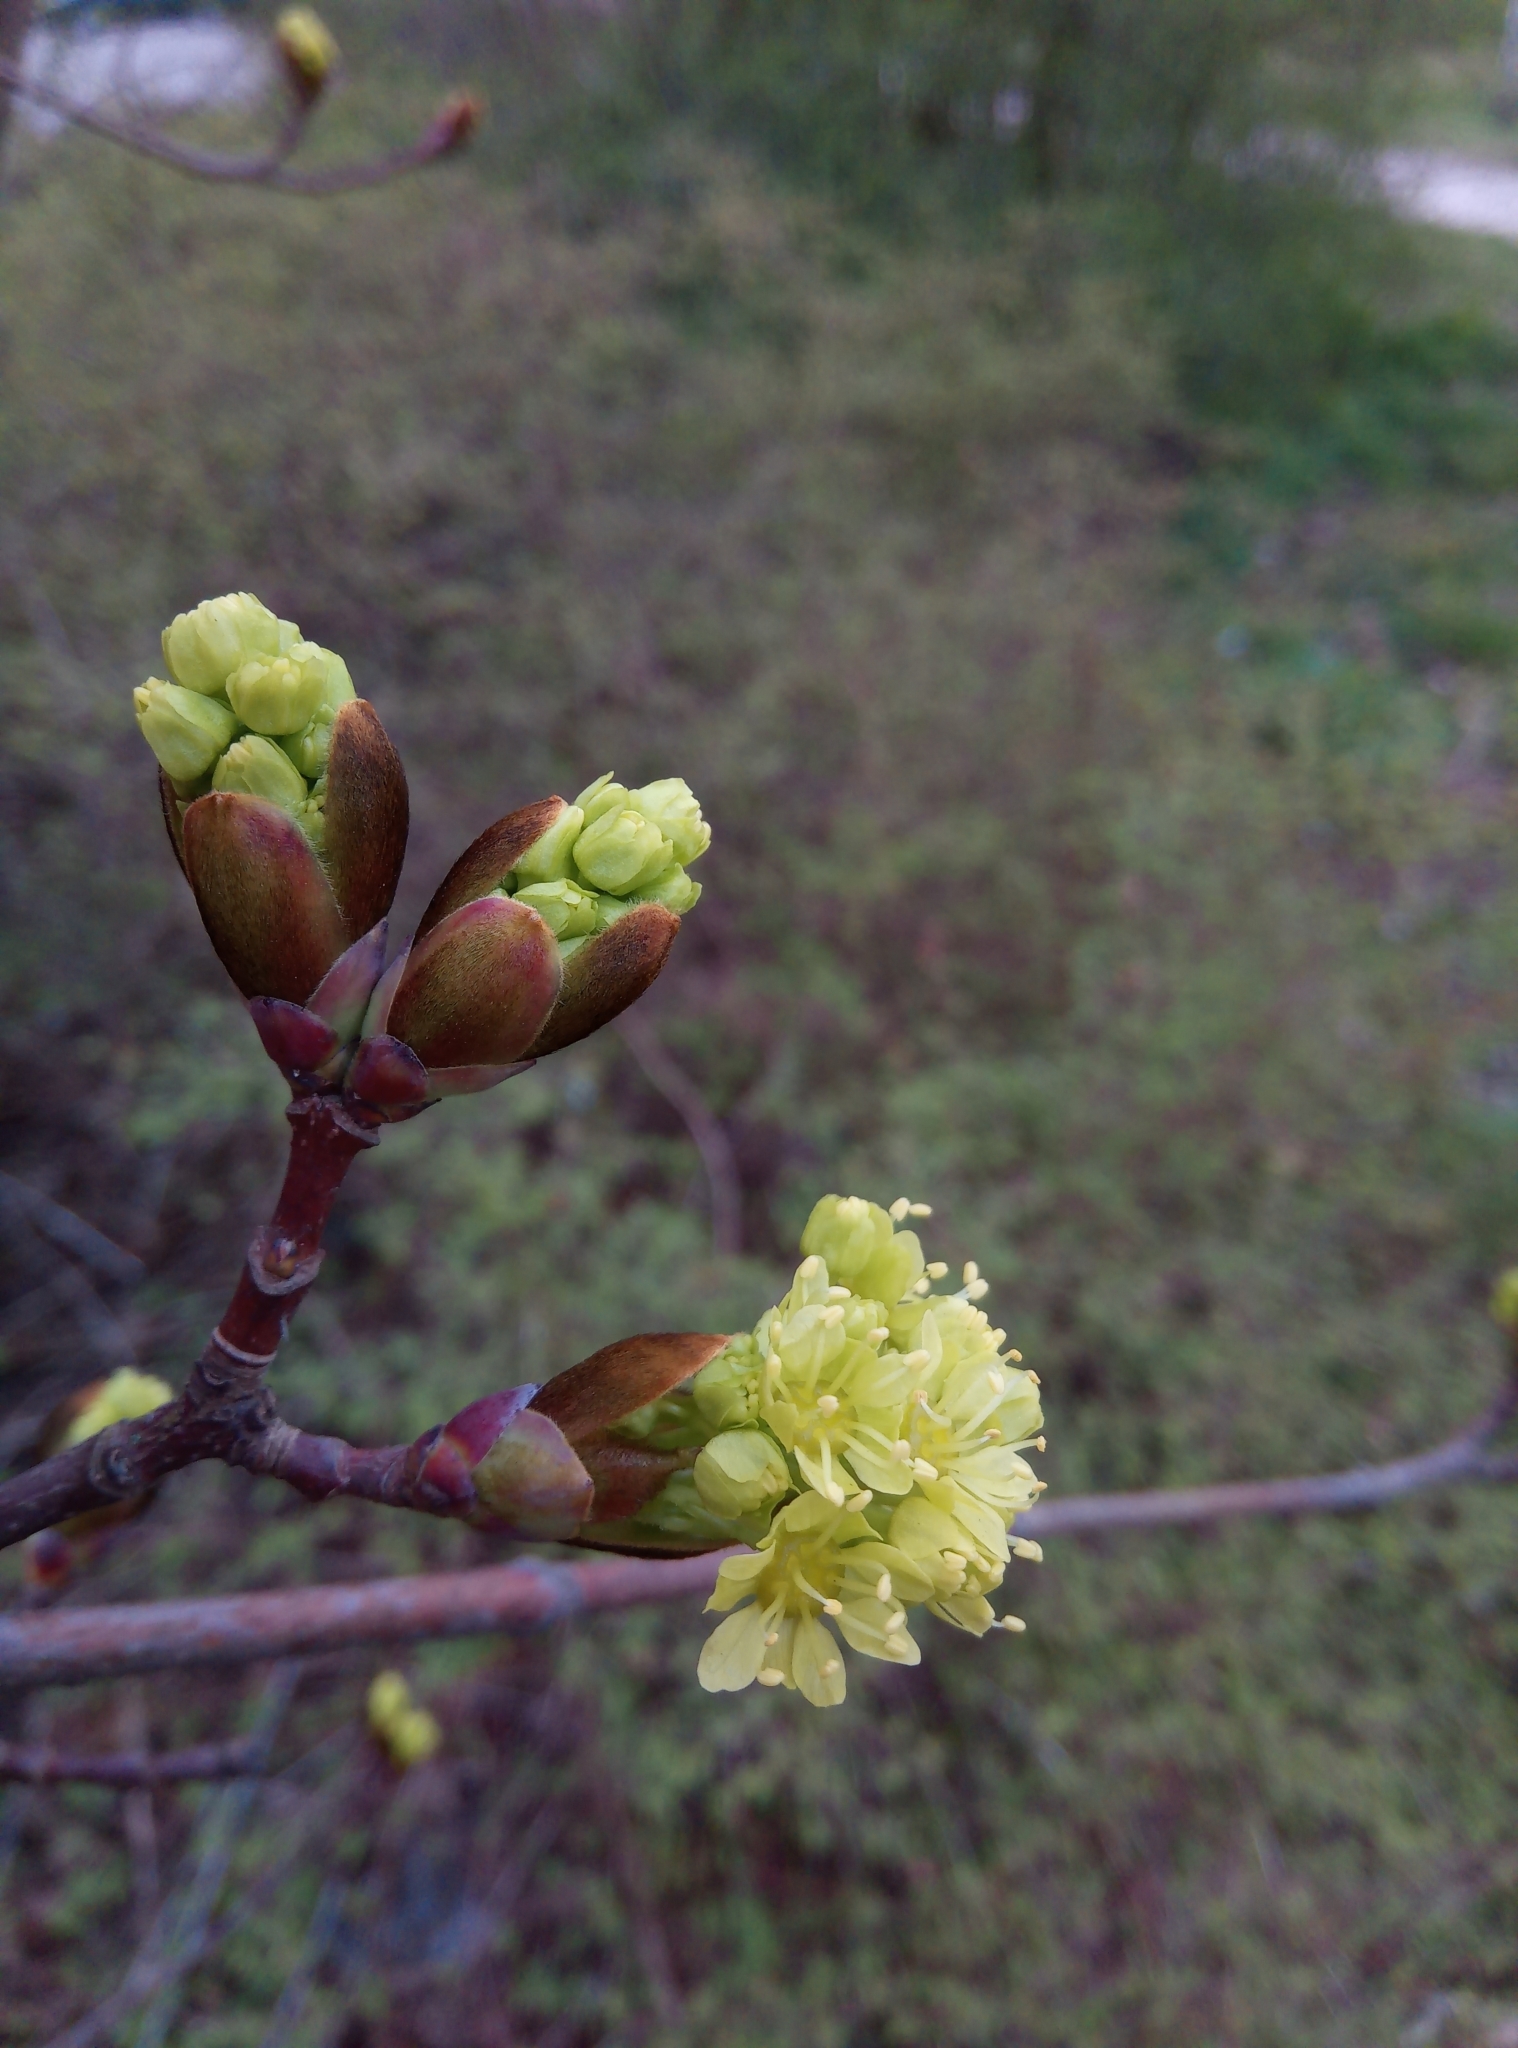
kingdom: Plantae
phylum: Tracheophyta
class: Magnoliopsida
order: Sapindales
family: Sapindaceae
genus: Acer
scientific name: Acer platanoides
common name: Norway maple
